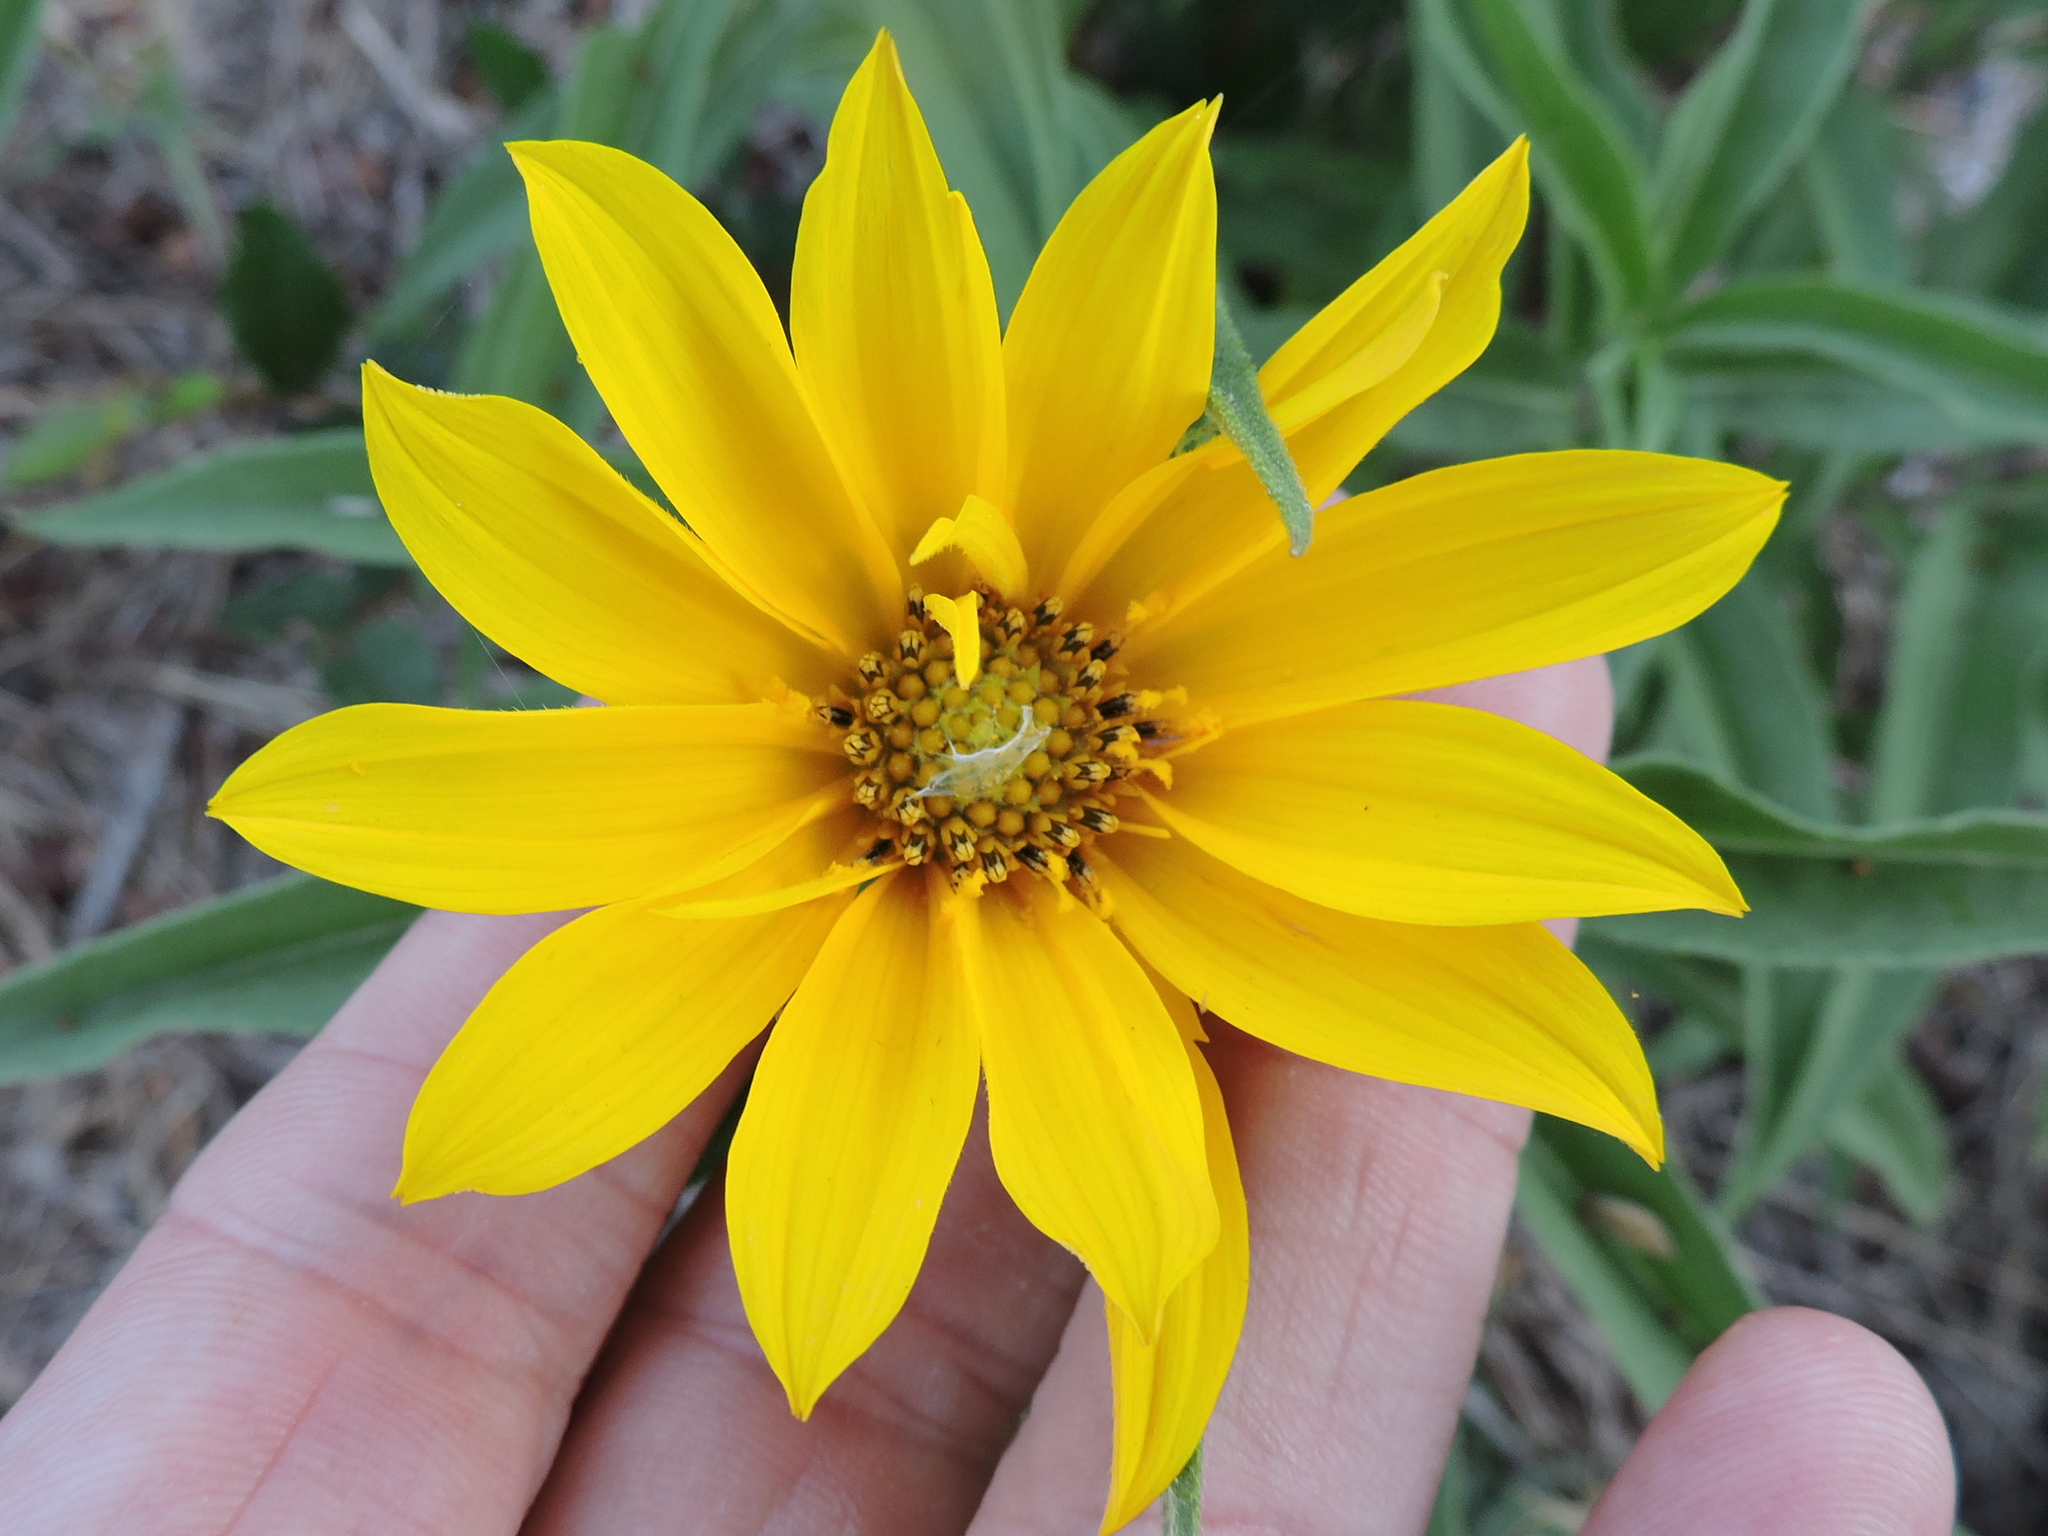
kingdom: Plantae
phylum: Tracheophyta
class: Magnoliopsida
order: Asterales
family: Asteraceae
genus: Helianthus
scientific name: Helianthus maximiliani
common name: Maximilian's sunflower
